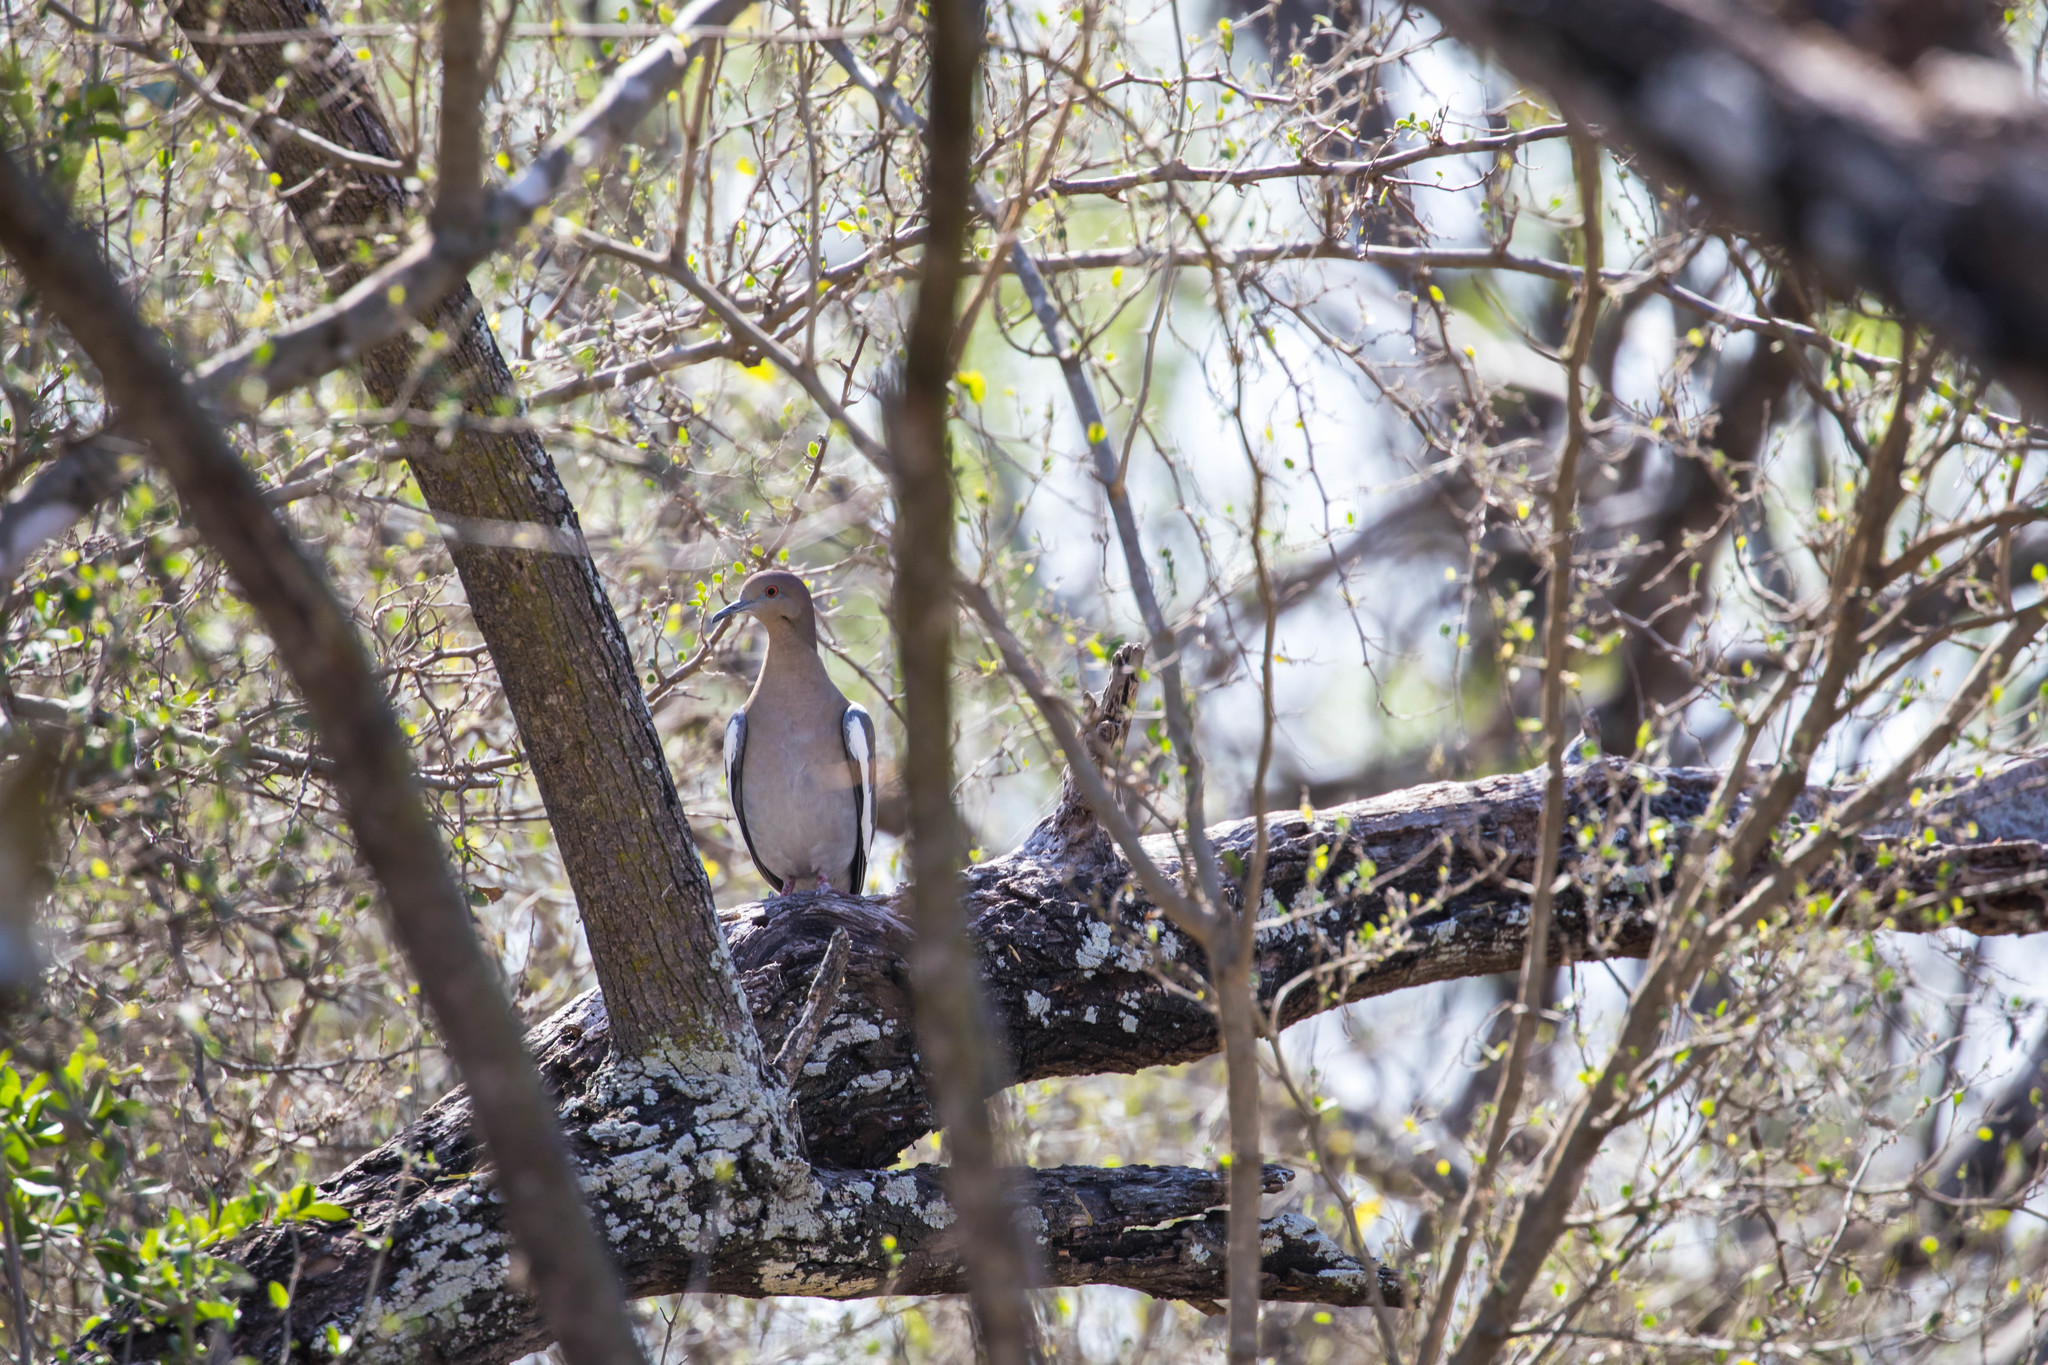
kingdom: Animalia
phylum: Chordata
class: Aves
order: Columbiformes
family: Columbidae
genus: Zenaida
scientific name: Zenaida asiatica
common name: White-winged dove
